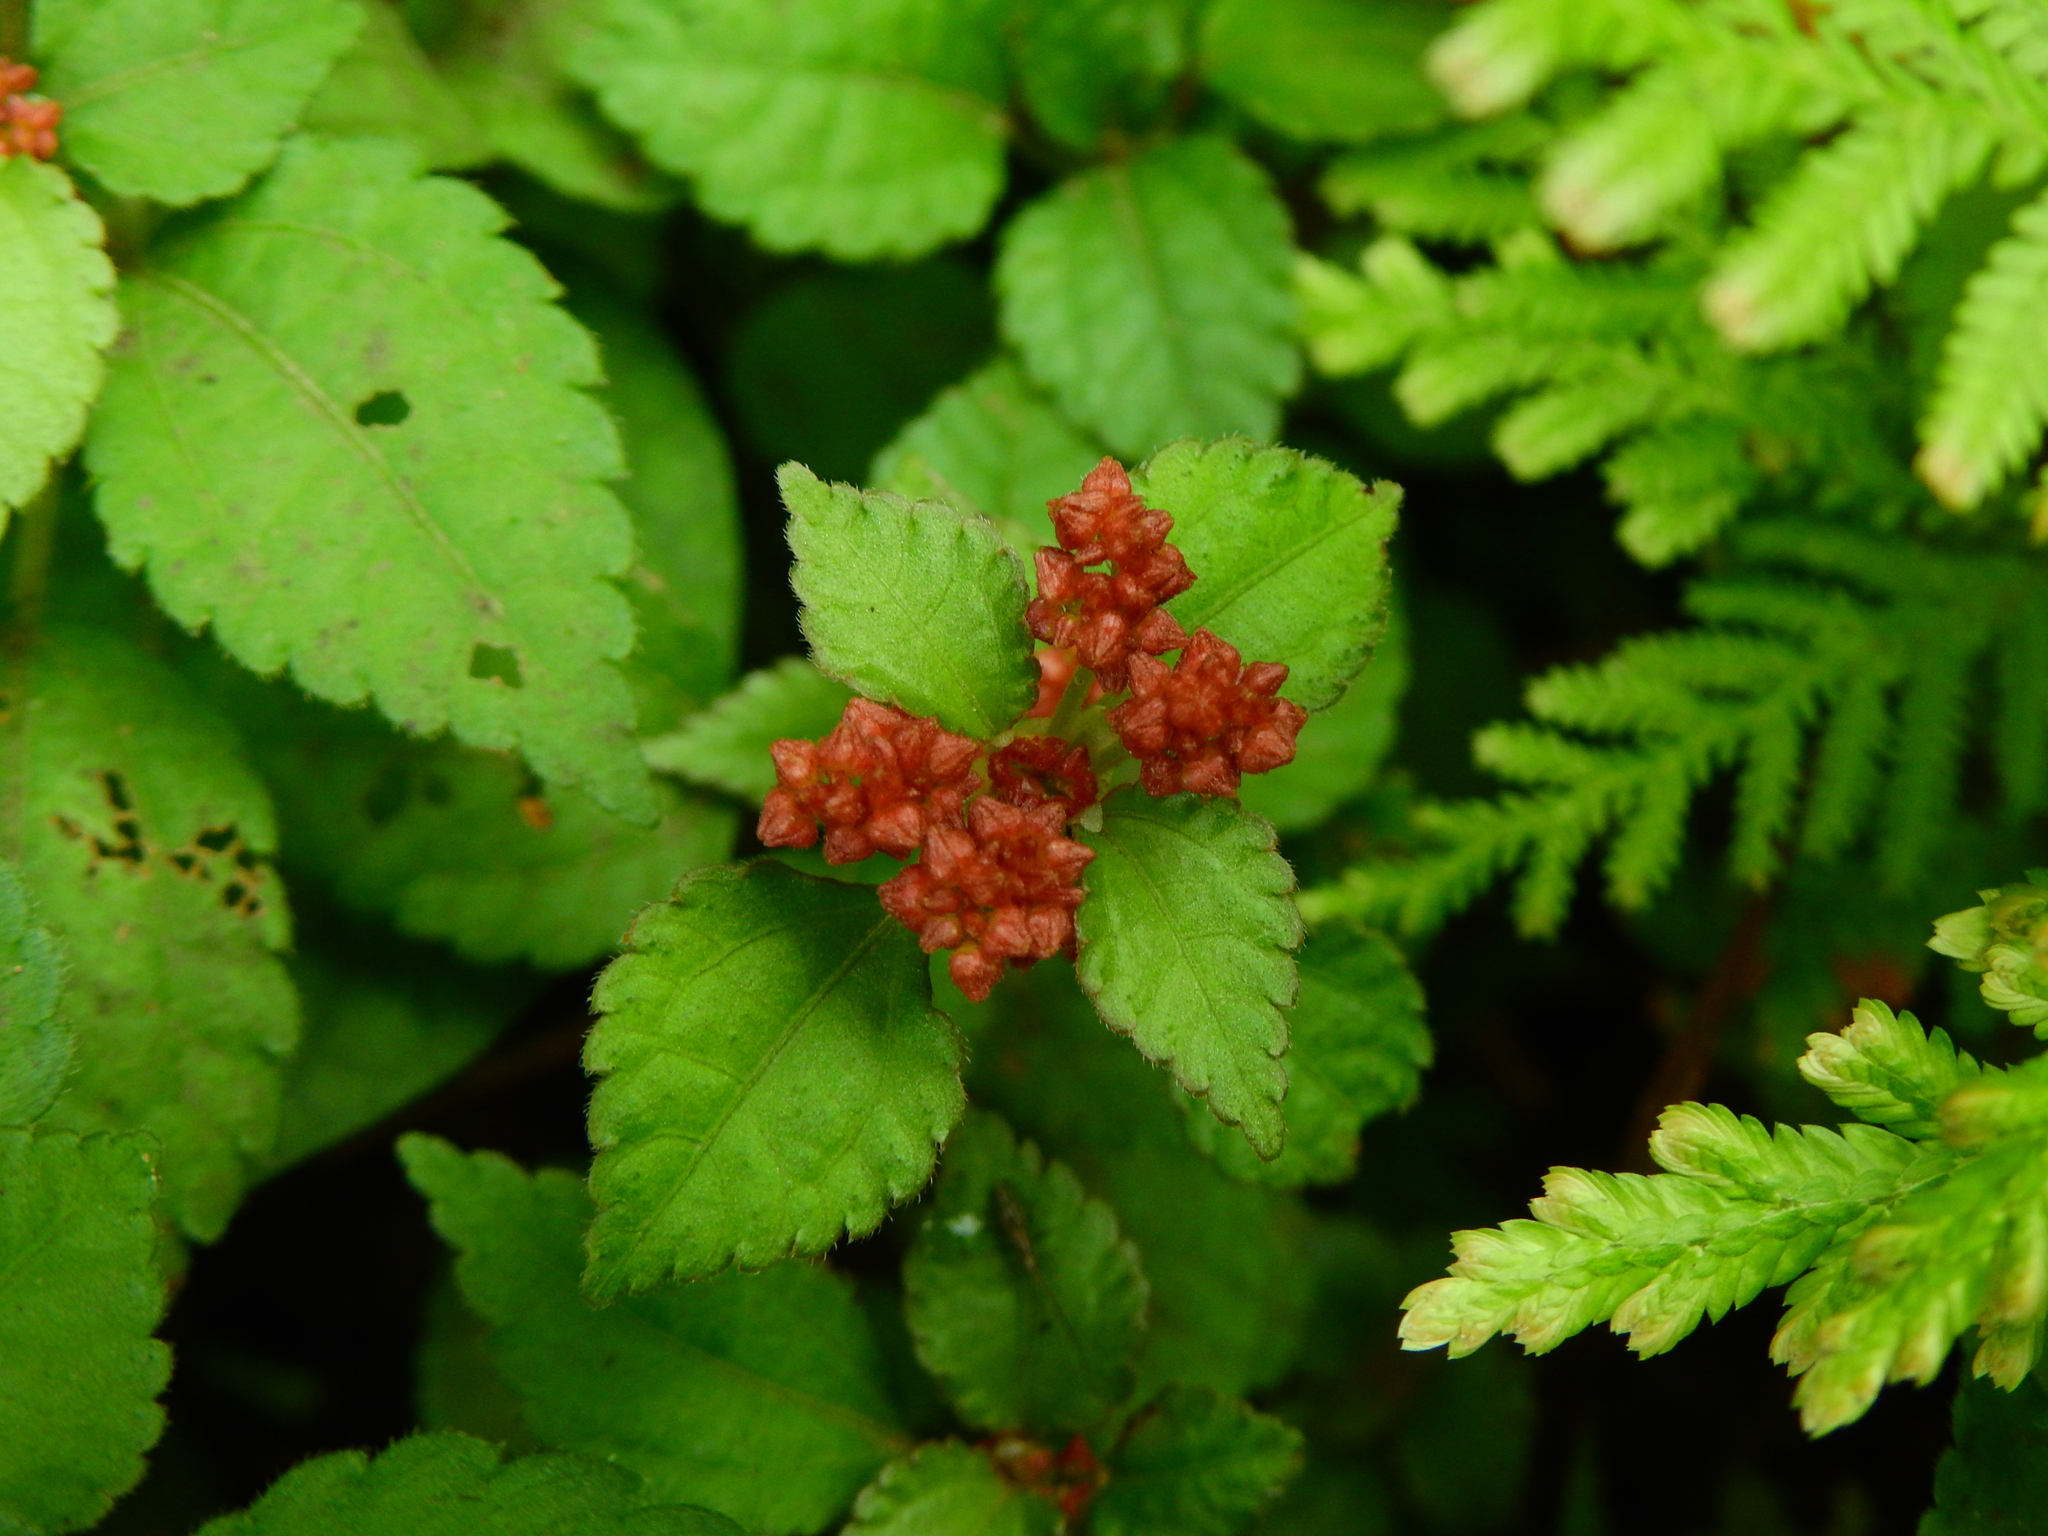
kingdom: Plantae
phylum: Tracheophyta
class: Magnoliopsida
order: Rosales
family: Urticaceae
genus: Pilea
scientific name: Pilea brevicornuta
